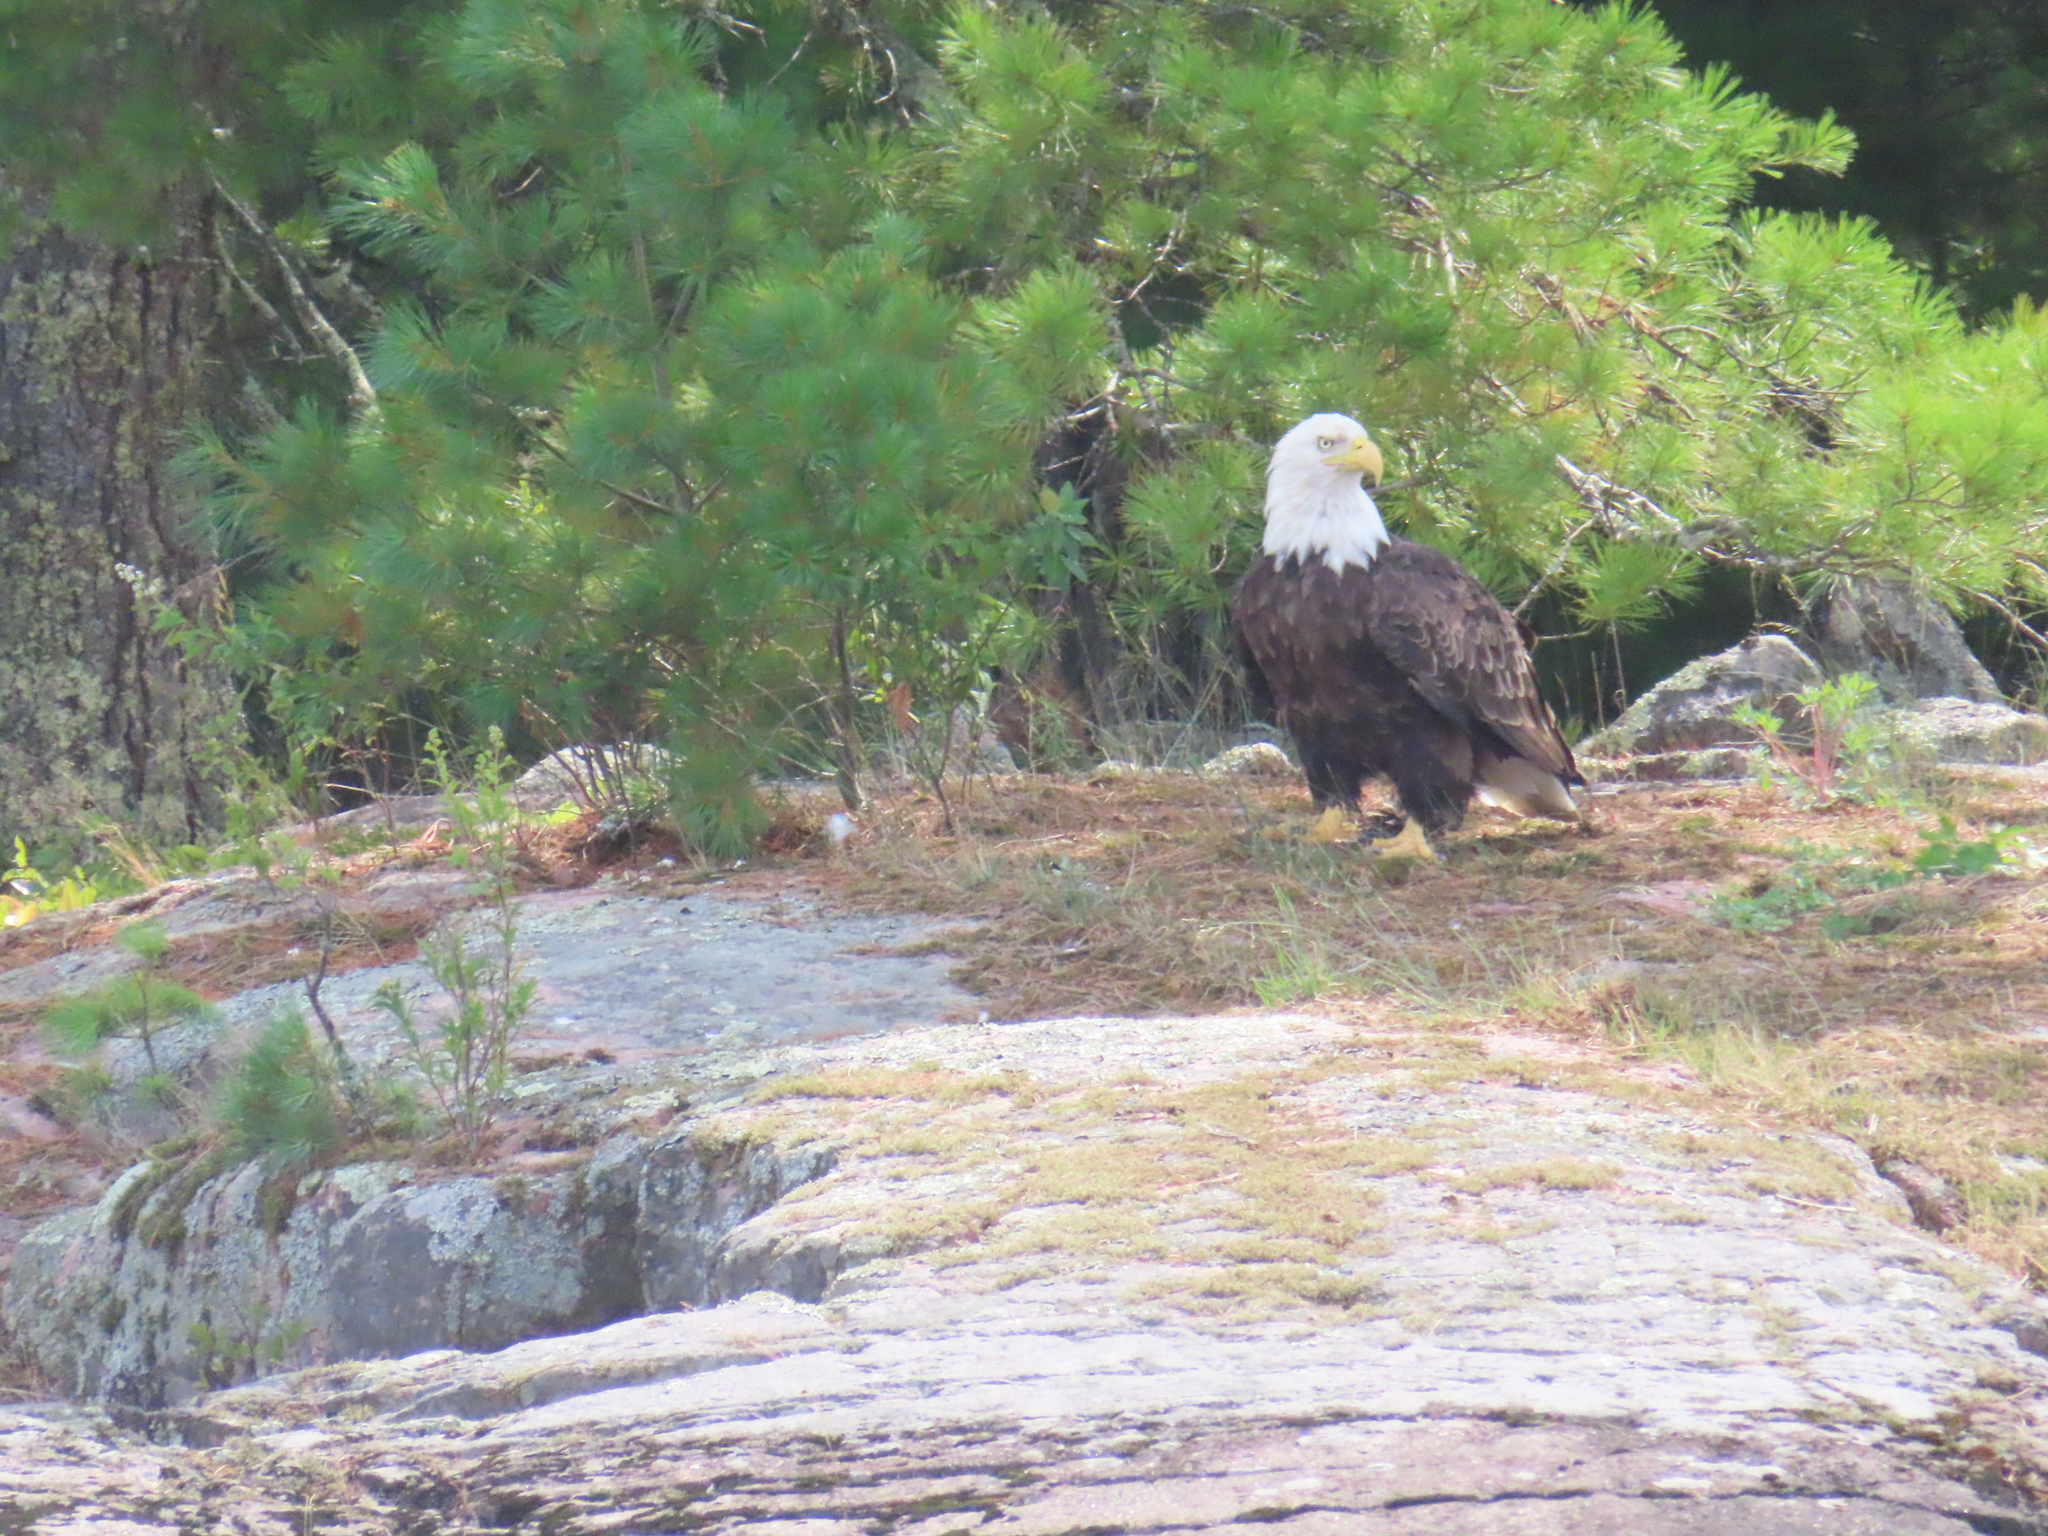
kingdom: Animalia
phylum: Chordata
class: Aves
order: Accipitriformes
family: Accipitridae
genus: Haliaeetus
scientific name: Haliaeetus leucocephalus
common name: Bald eagle
